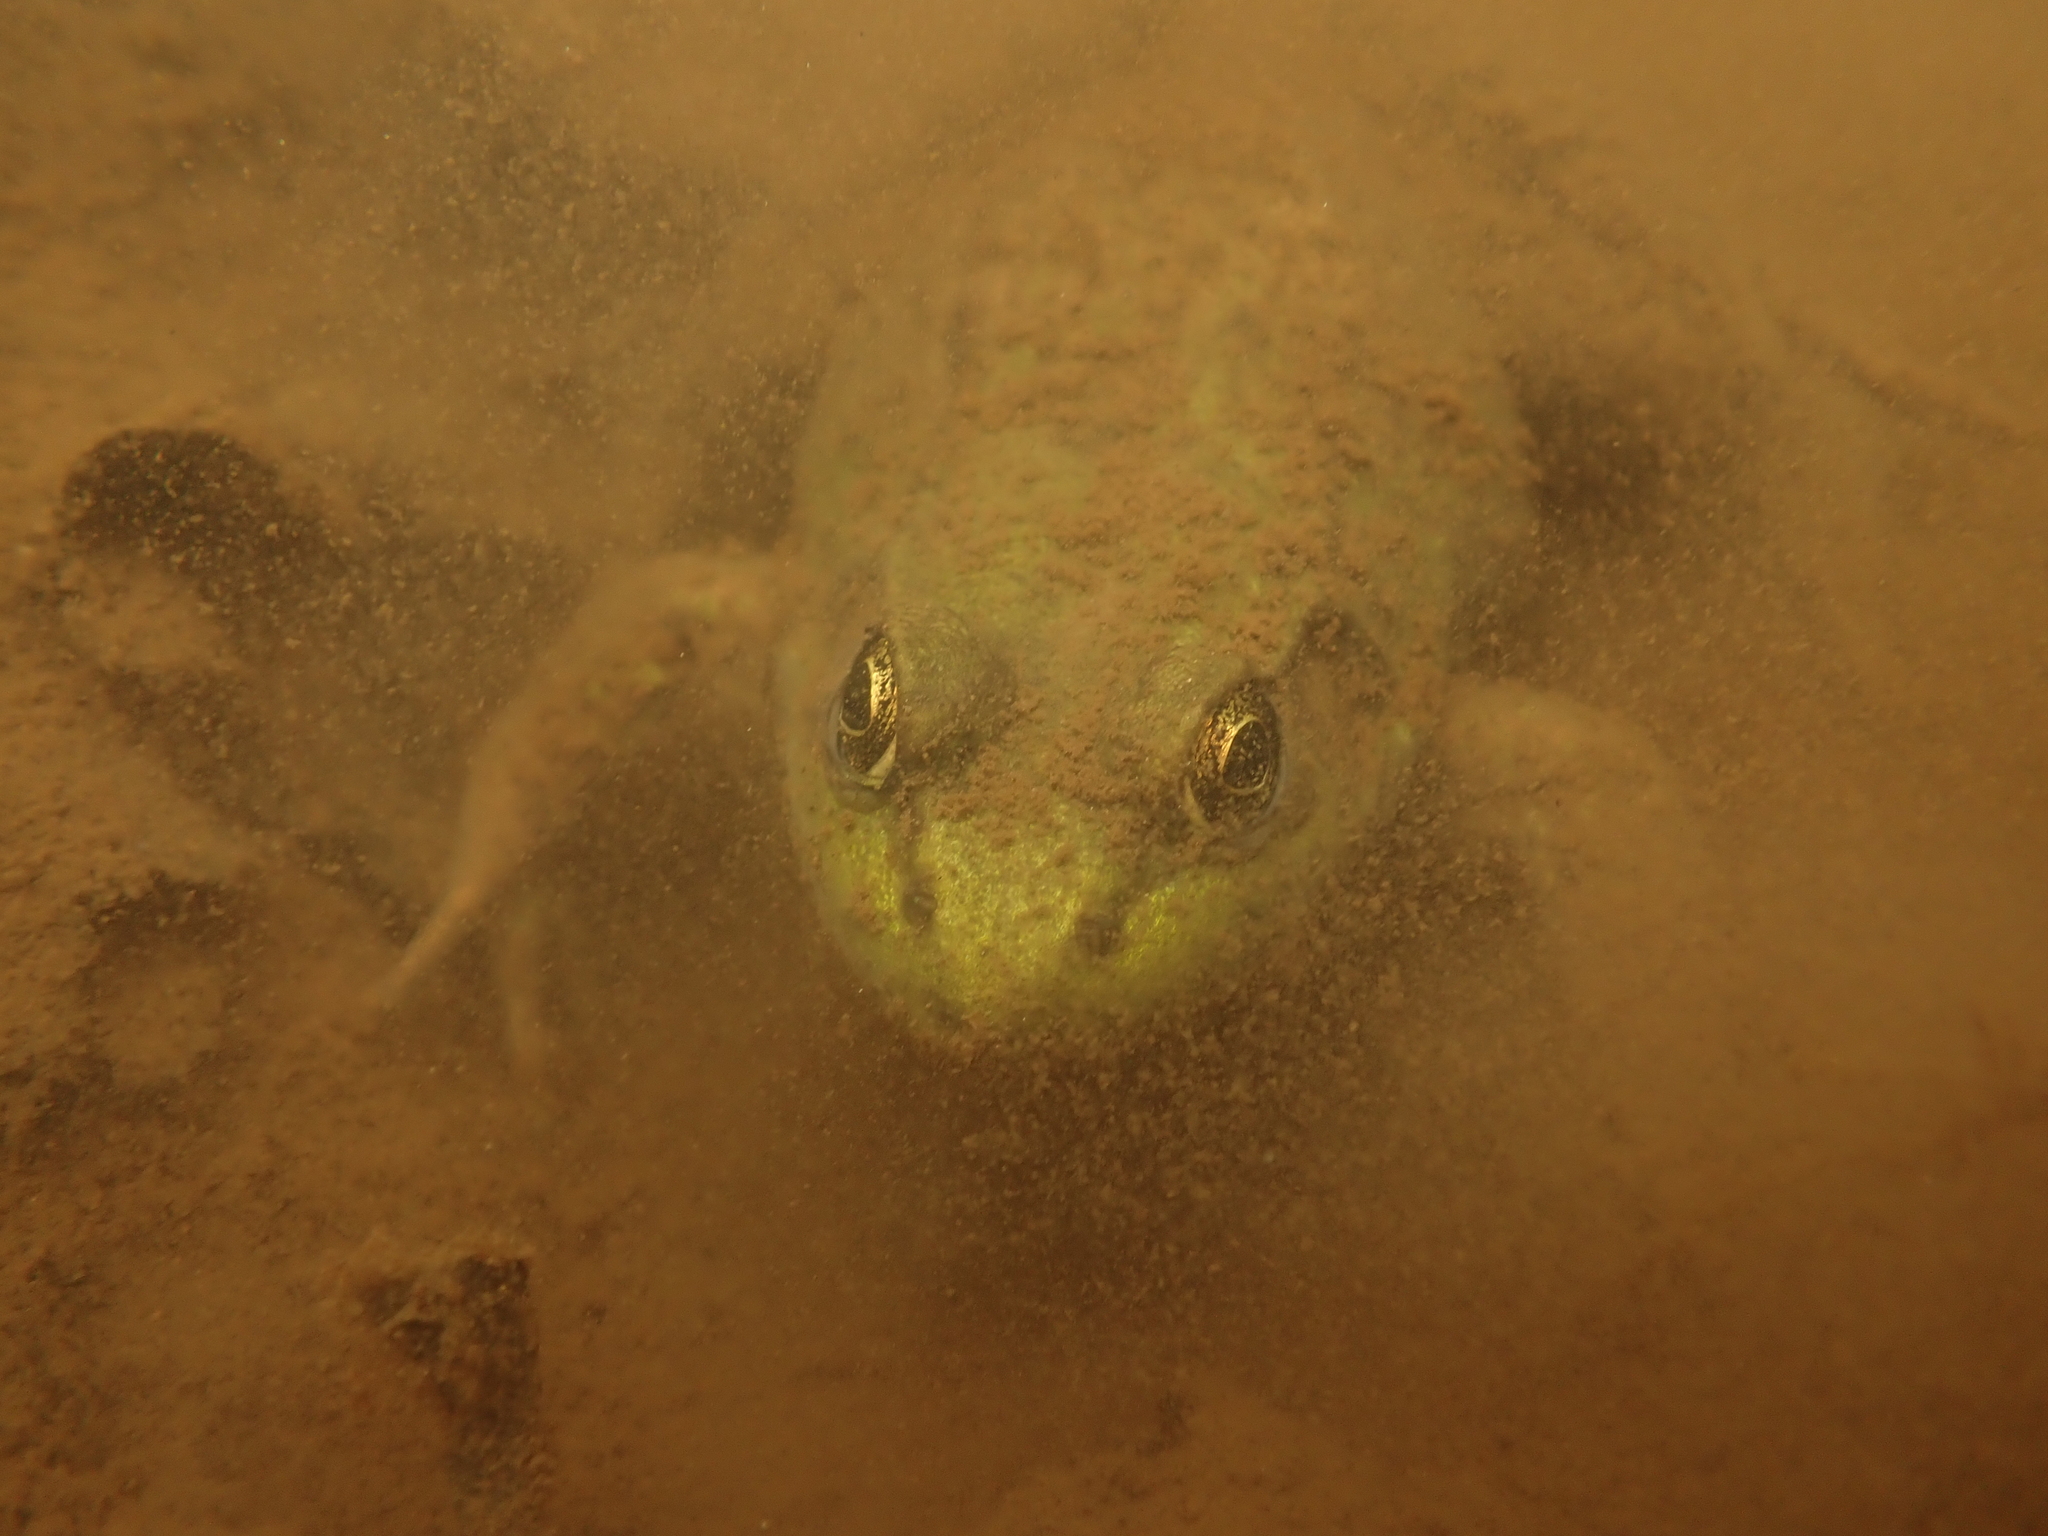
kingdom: Animalia
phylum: Chordata
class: Amphibia
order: Anura
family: Ranidae
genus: Lithobates
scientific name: Lithobates clamitans
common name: Green frog
